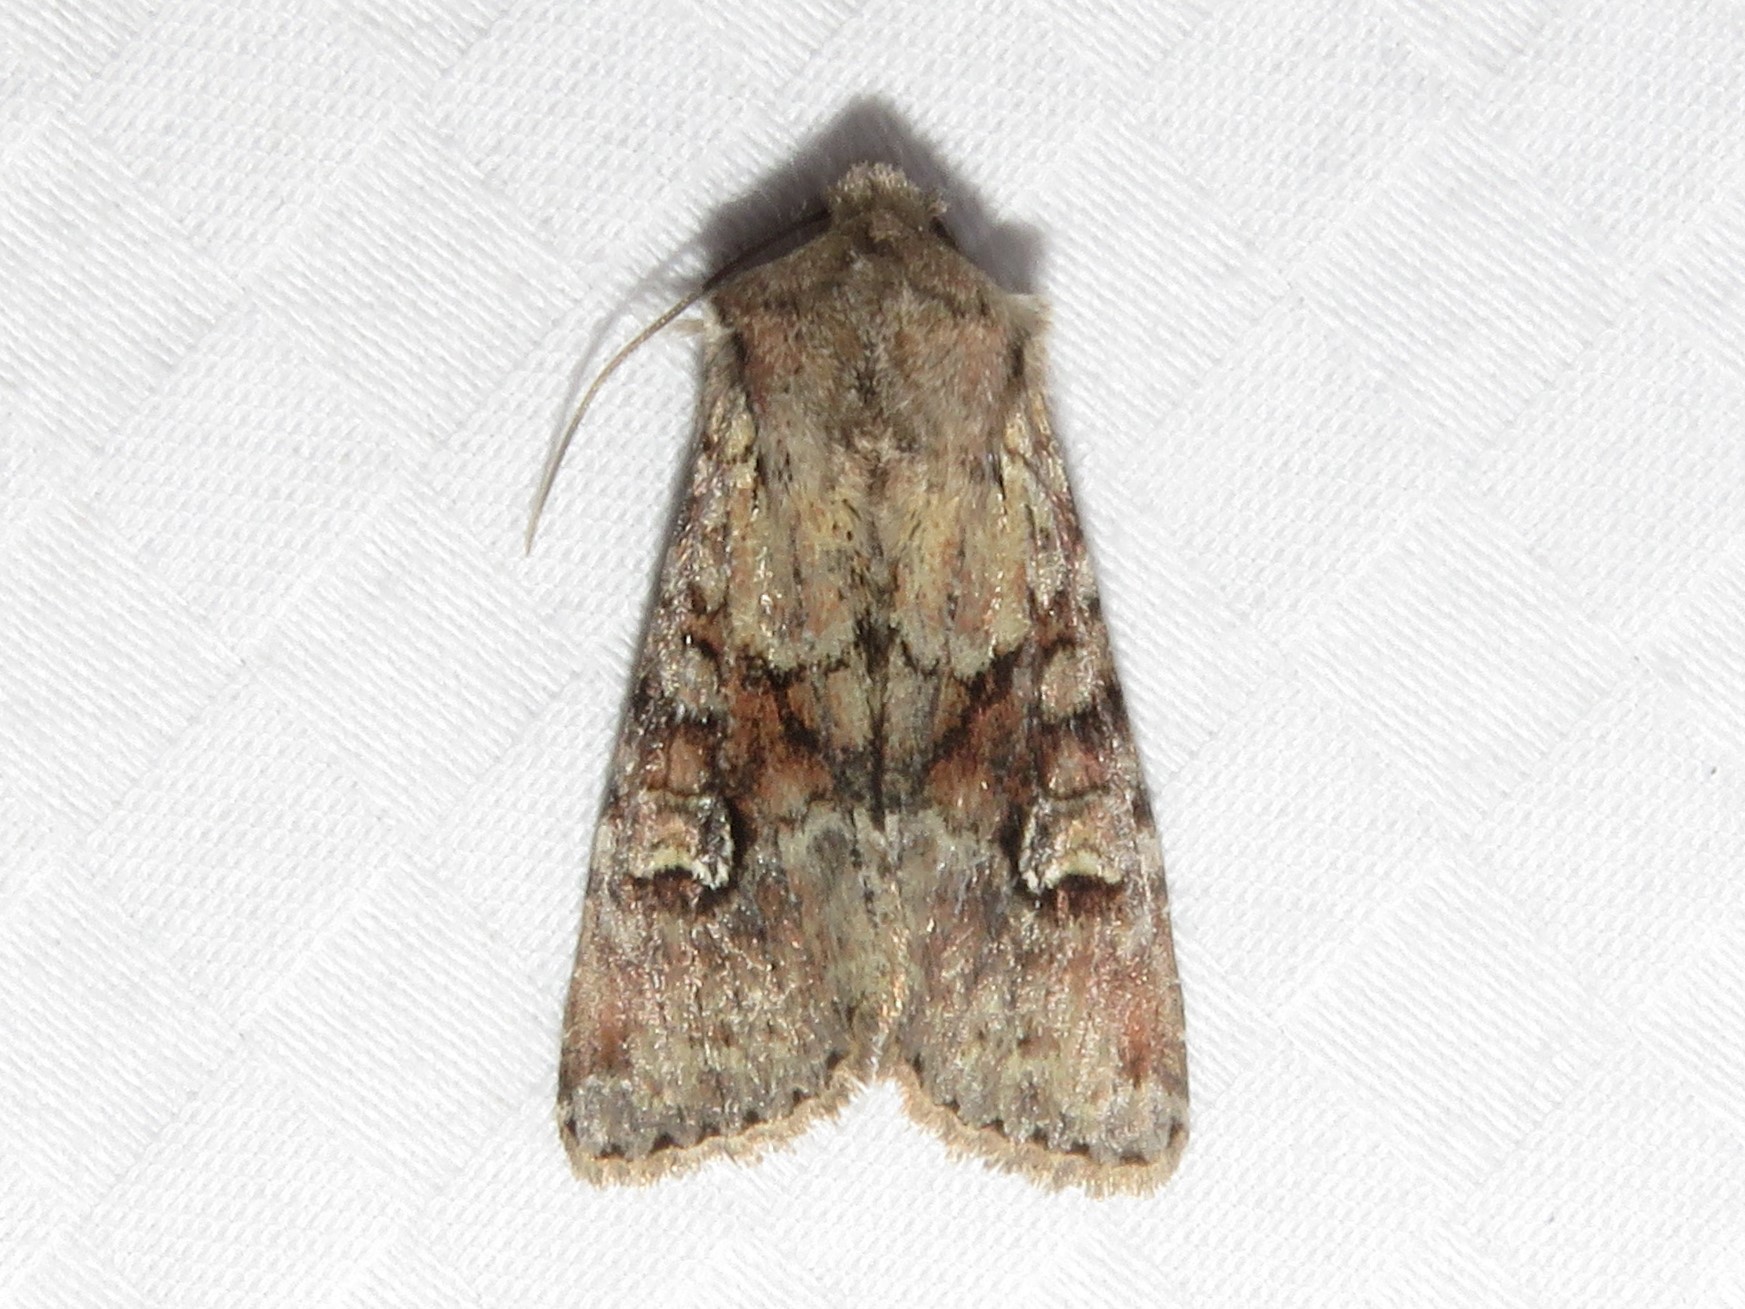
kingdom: Animalia
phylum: Arthropoda
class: Insecta
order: Lepidoptera
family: Noctuidae
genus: Apamea
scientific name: Apamea sordens
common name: Rustic shoulder-knot
